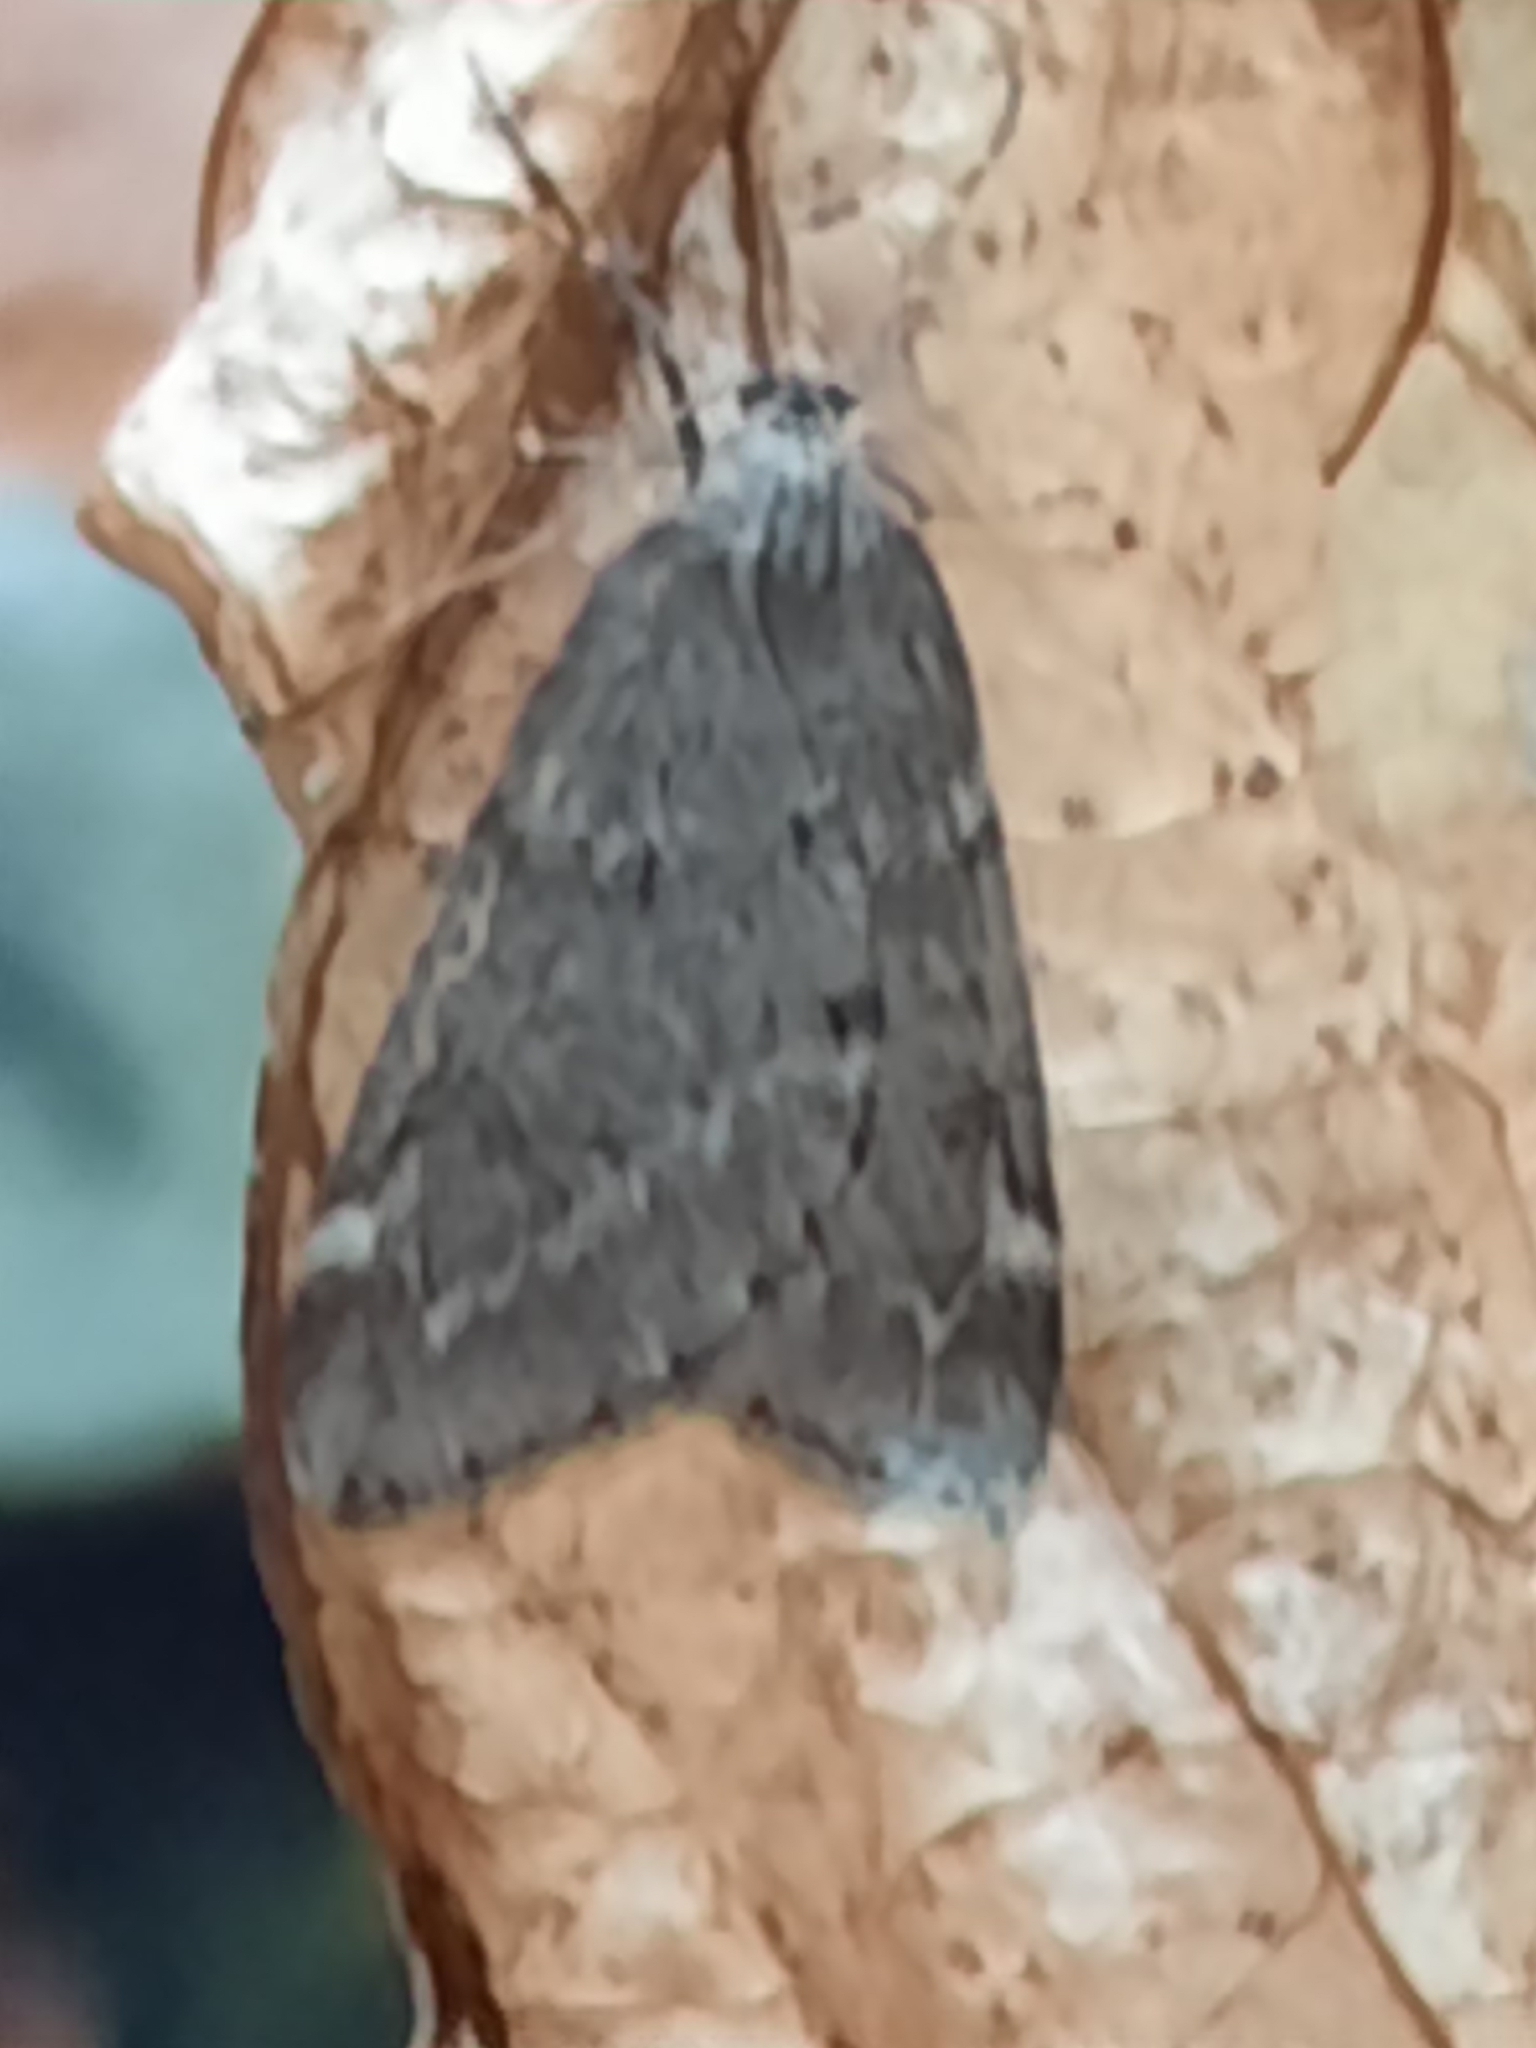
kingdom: Animalia
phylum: Arthropoda
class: Insecta
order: Lepidoptera
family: Geometridae
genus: Alsophila
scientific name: Alsophila pometaria
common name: Fall cankerworm
